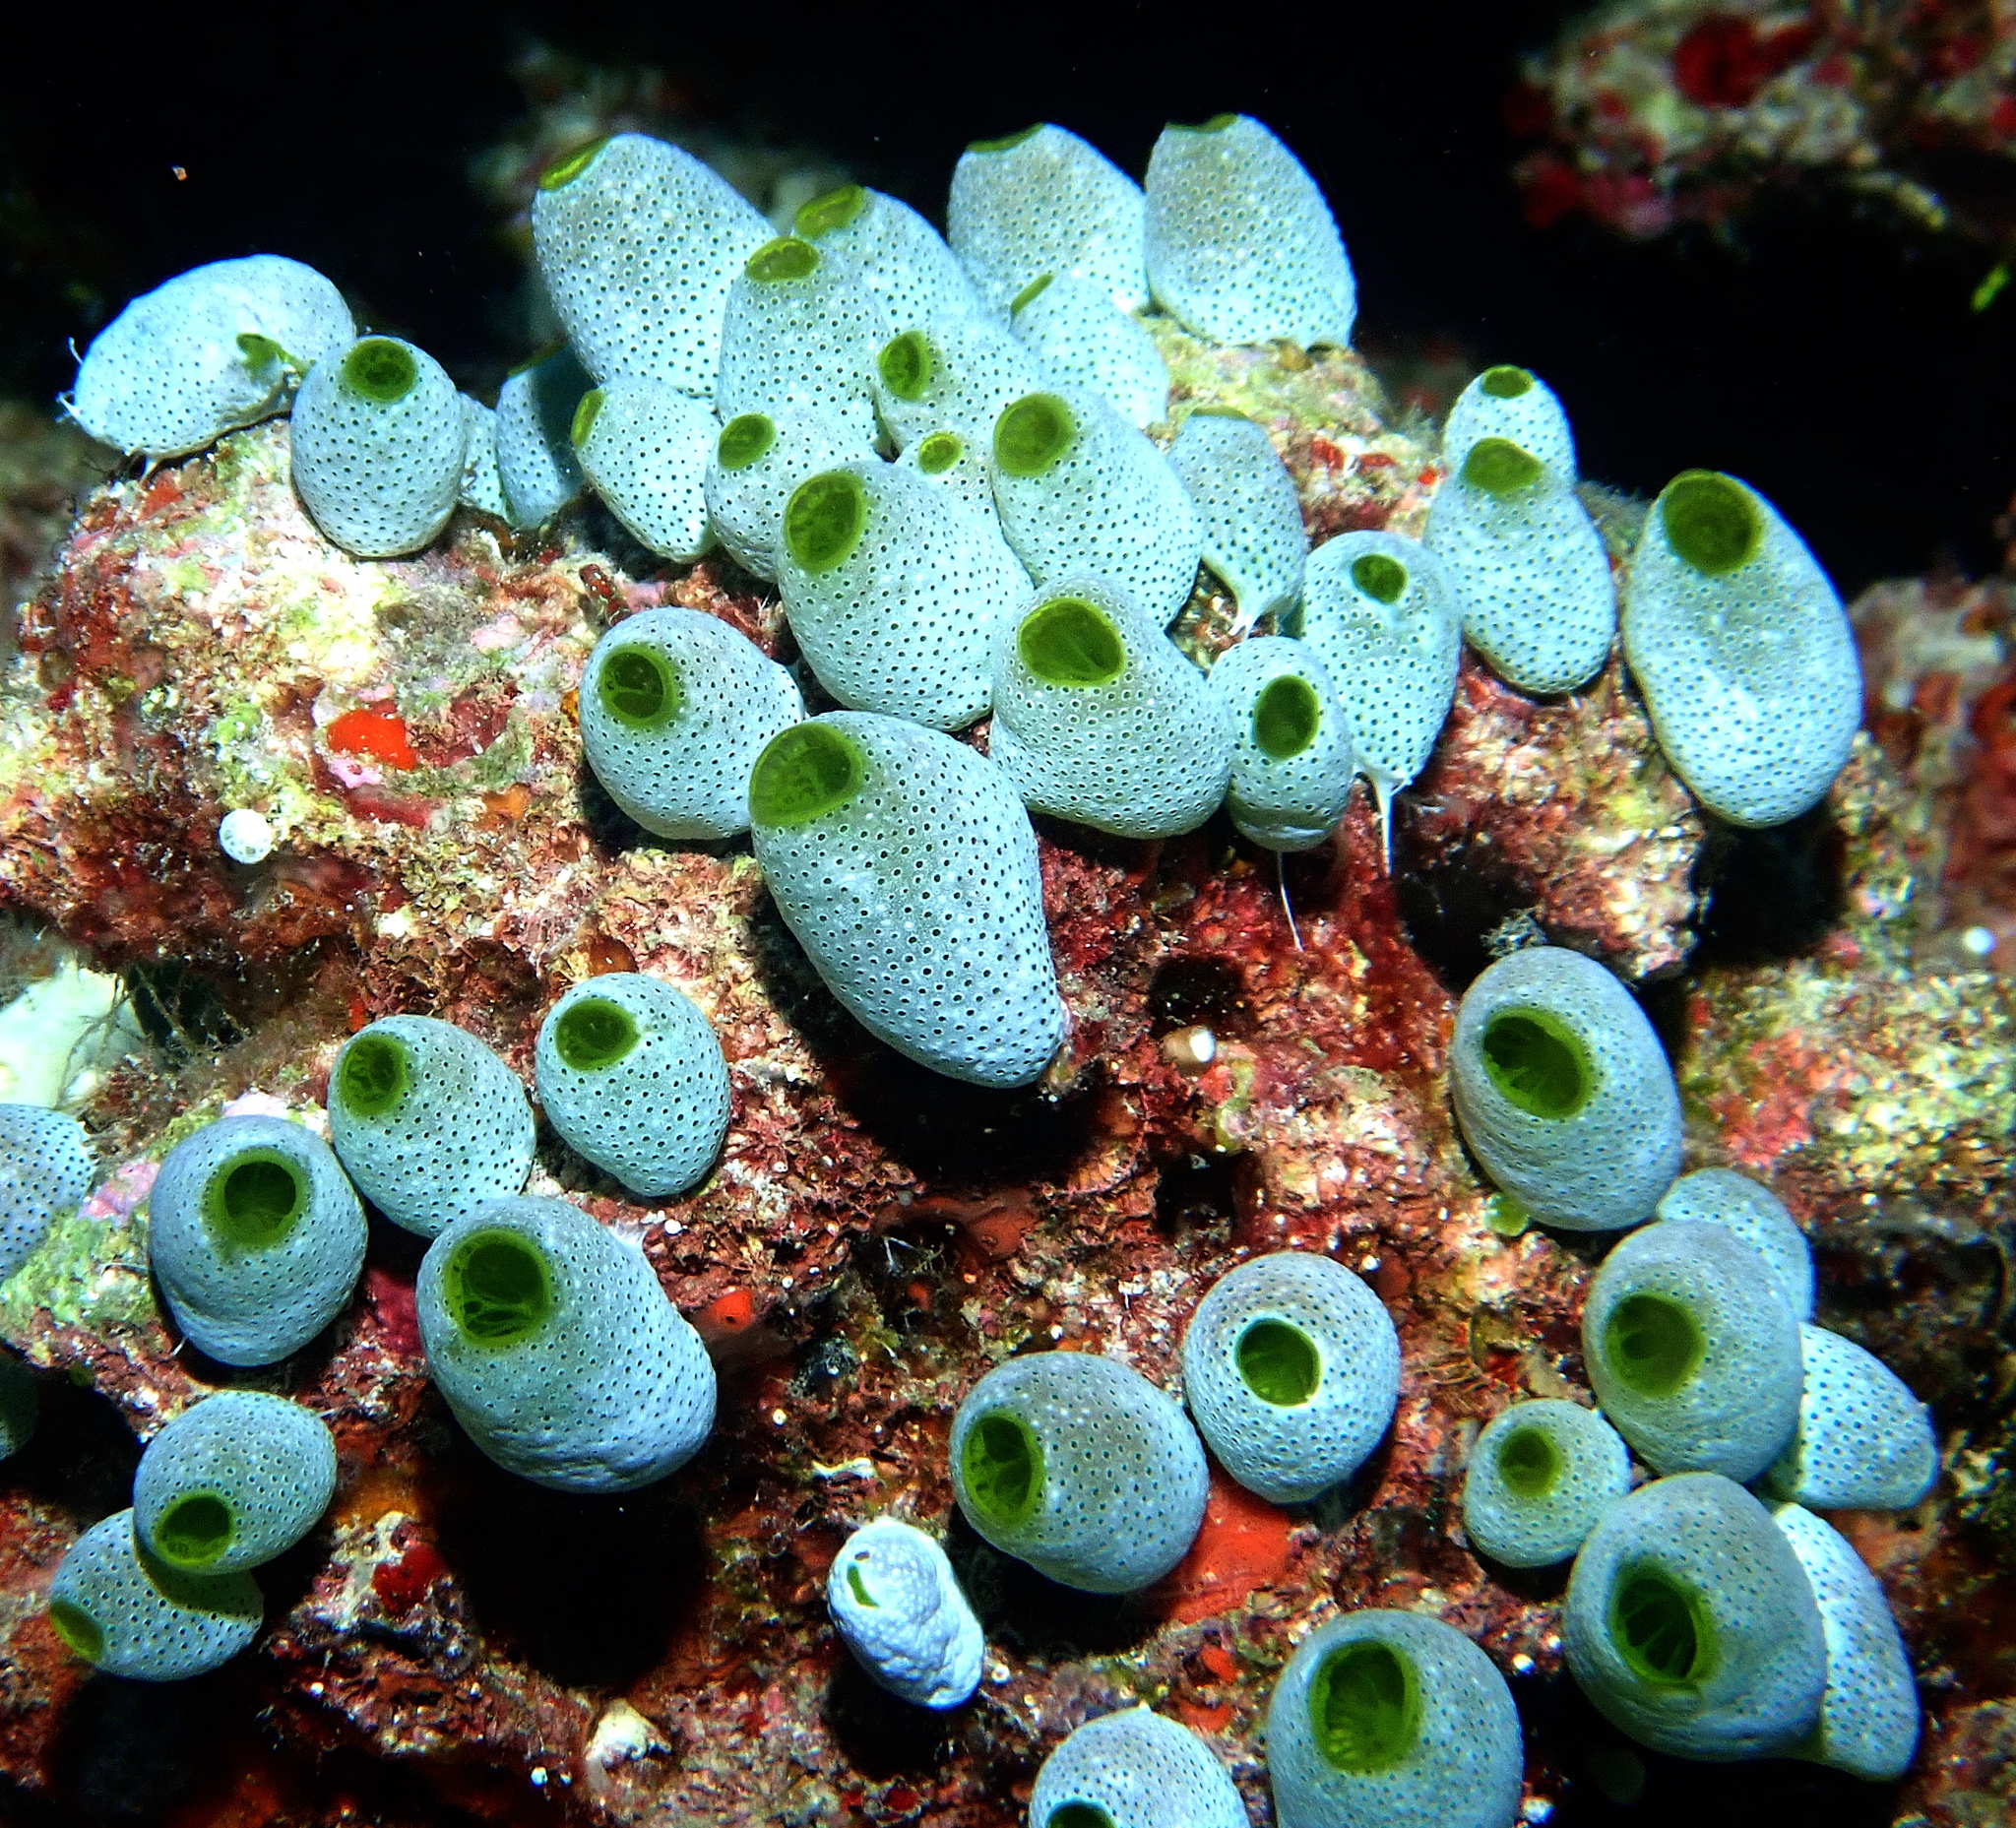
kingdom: Animalia
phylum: Chordata
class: Ascidiacea
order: Aplousobranchia
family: Didemnidae
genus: Didemnum
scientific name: Didemnum molle
